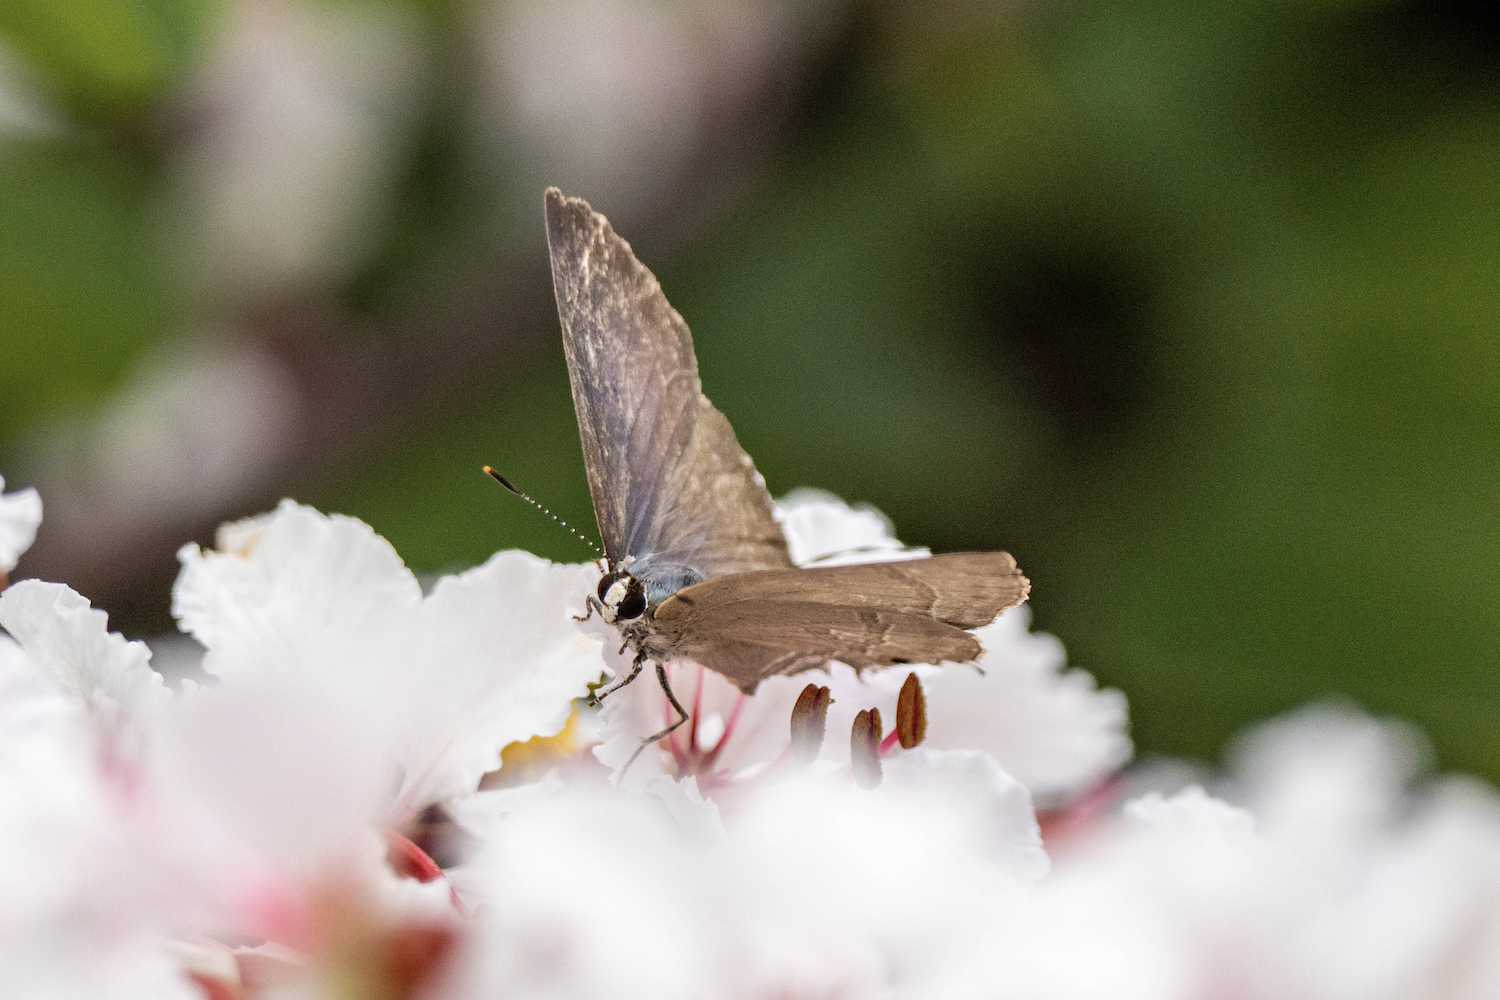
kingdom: Animalia
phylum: Arthropoda
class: Insecta
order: Lepidoptera
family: Lycaenidae
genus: Rapala
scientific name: Rapala manea
